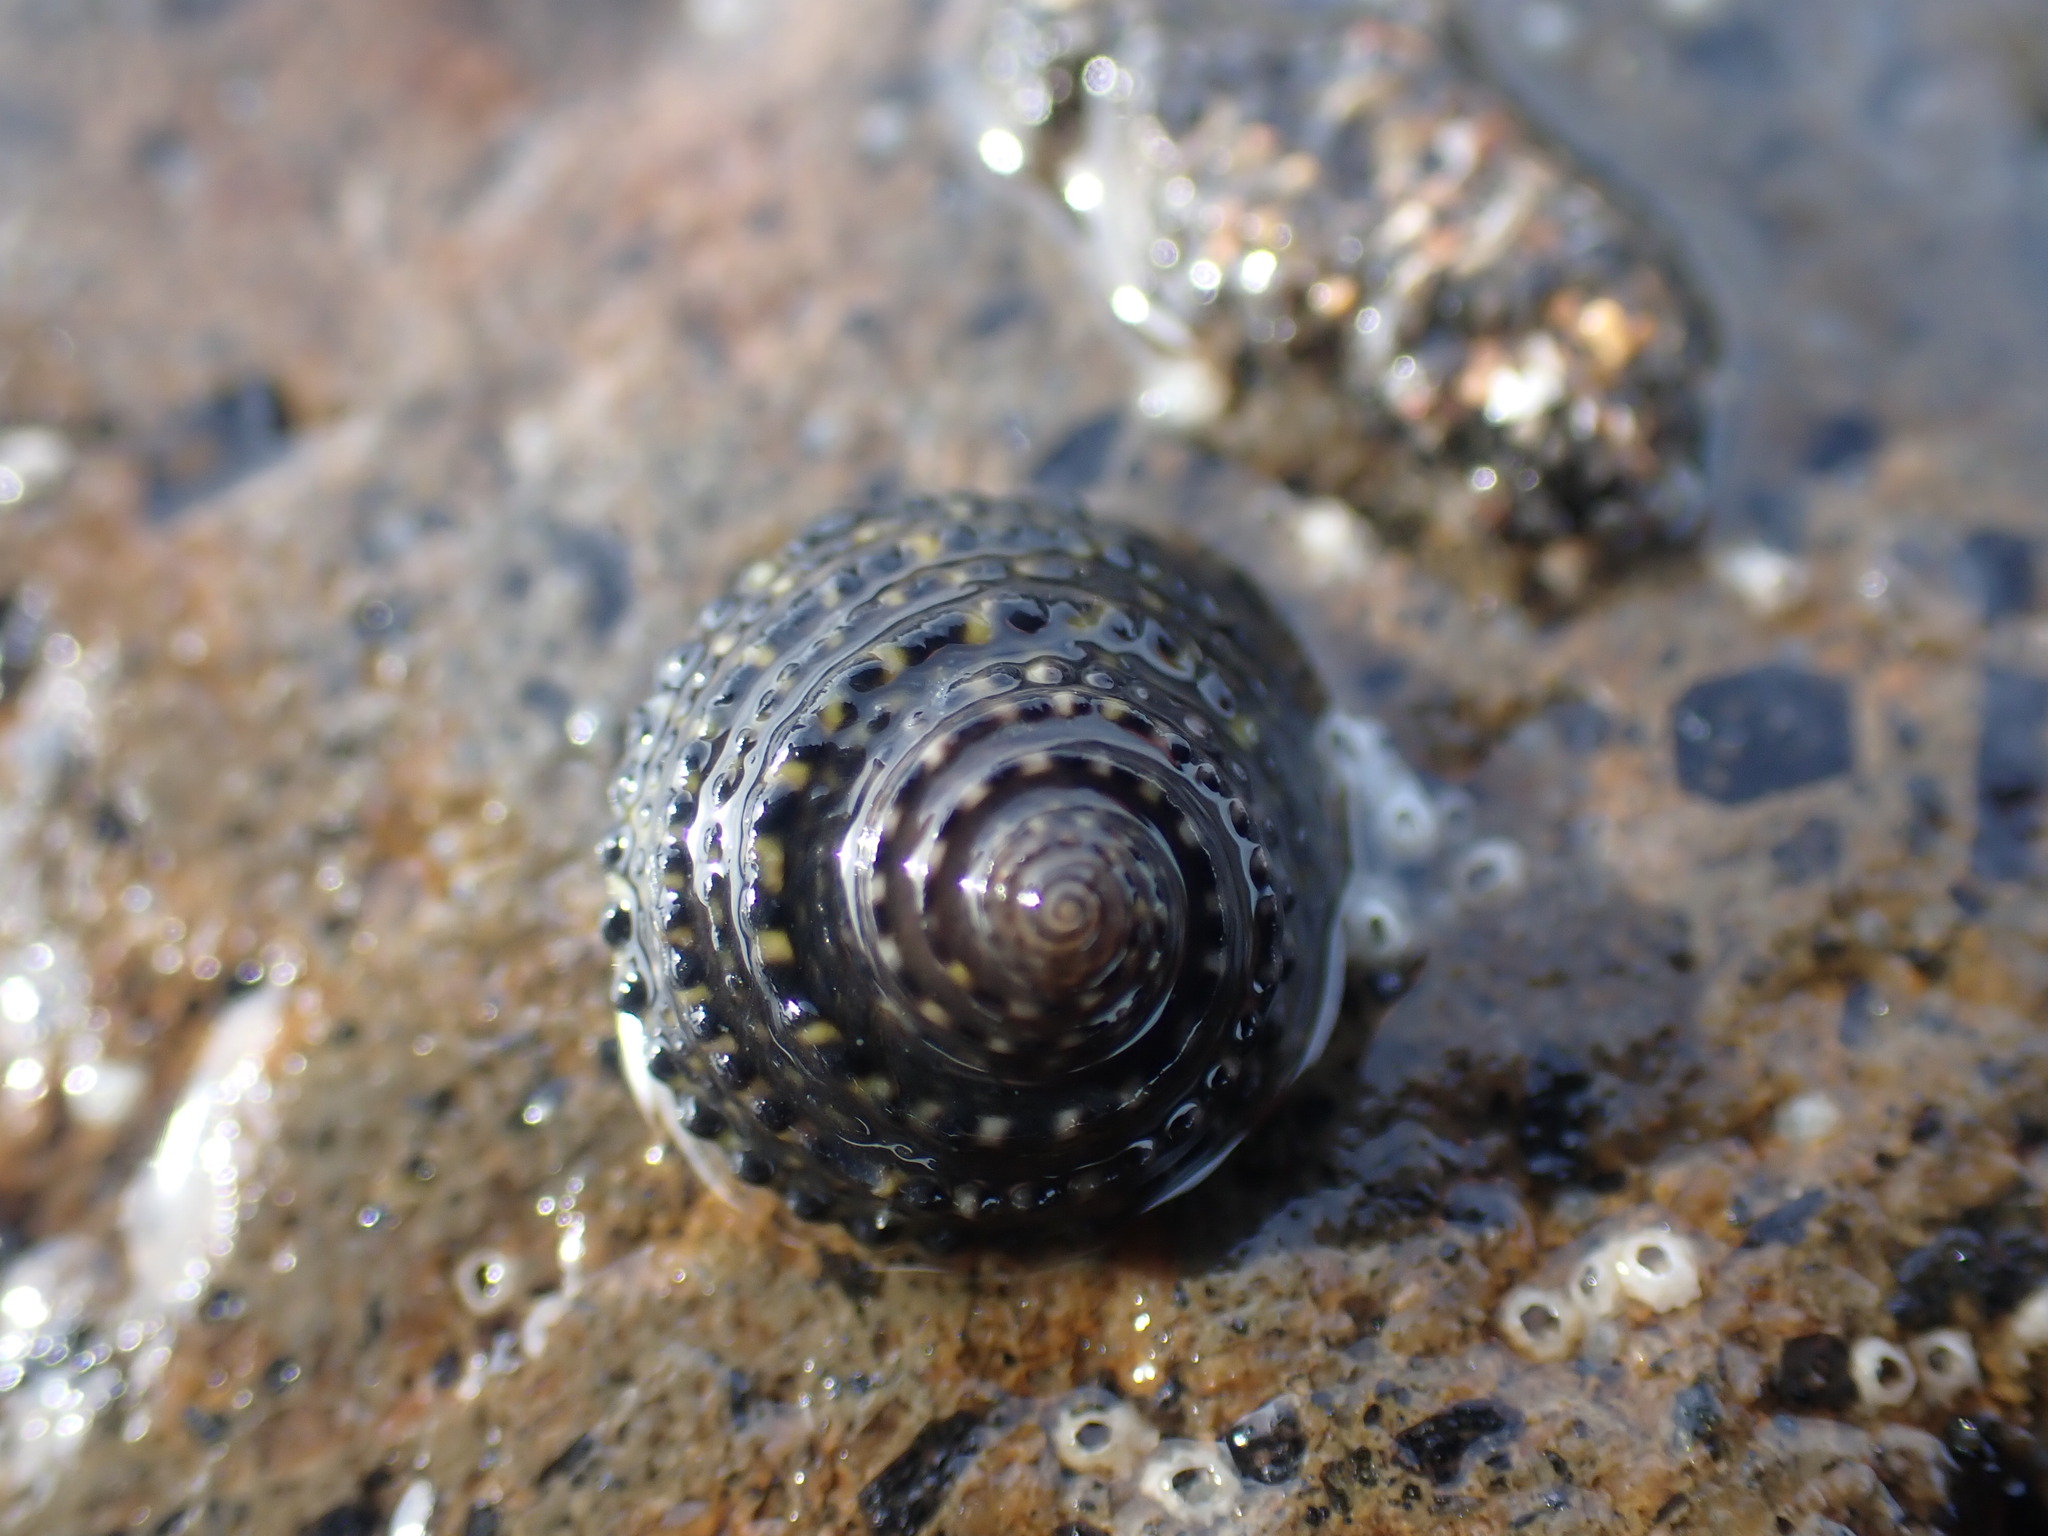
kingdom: Animalia
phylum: Mollusca
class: Gastropoda
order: Trochida
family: Trochidae
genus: Diloma
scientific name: Diloma bicanaliculatum
